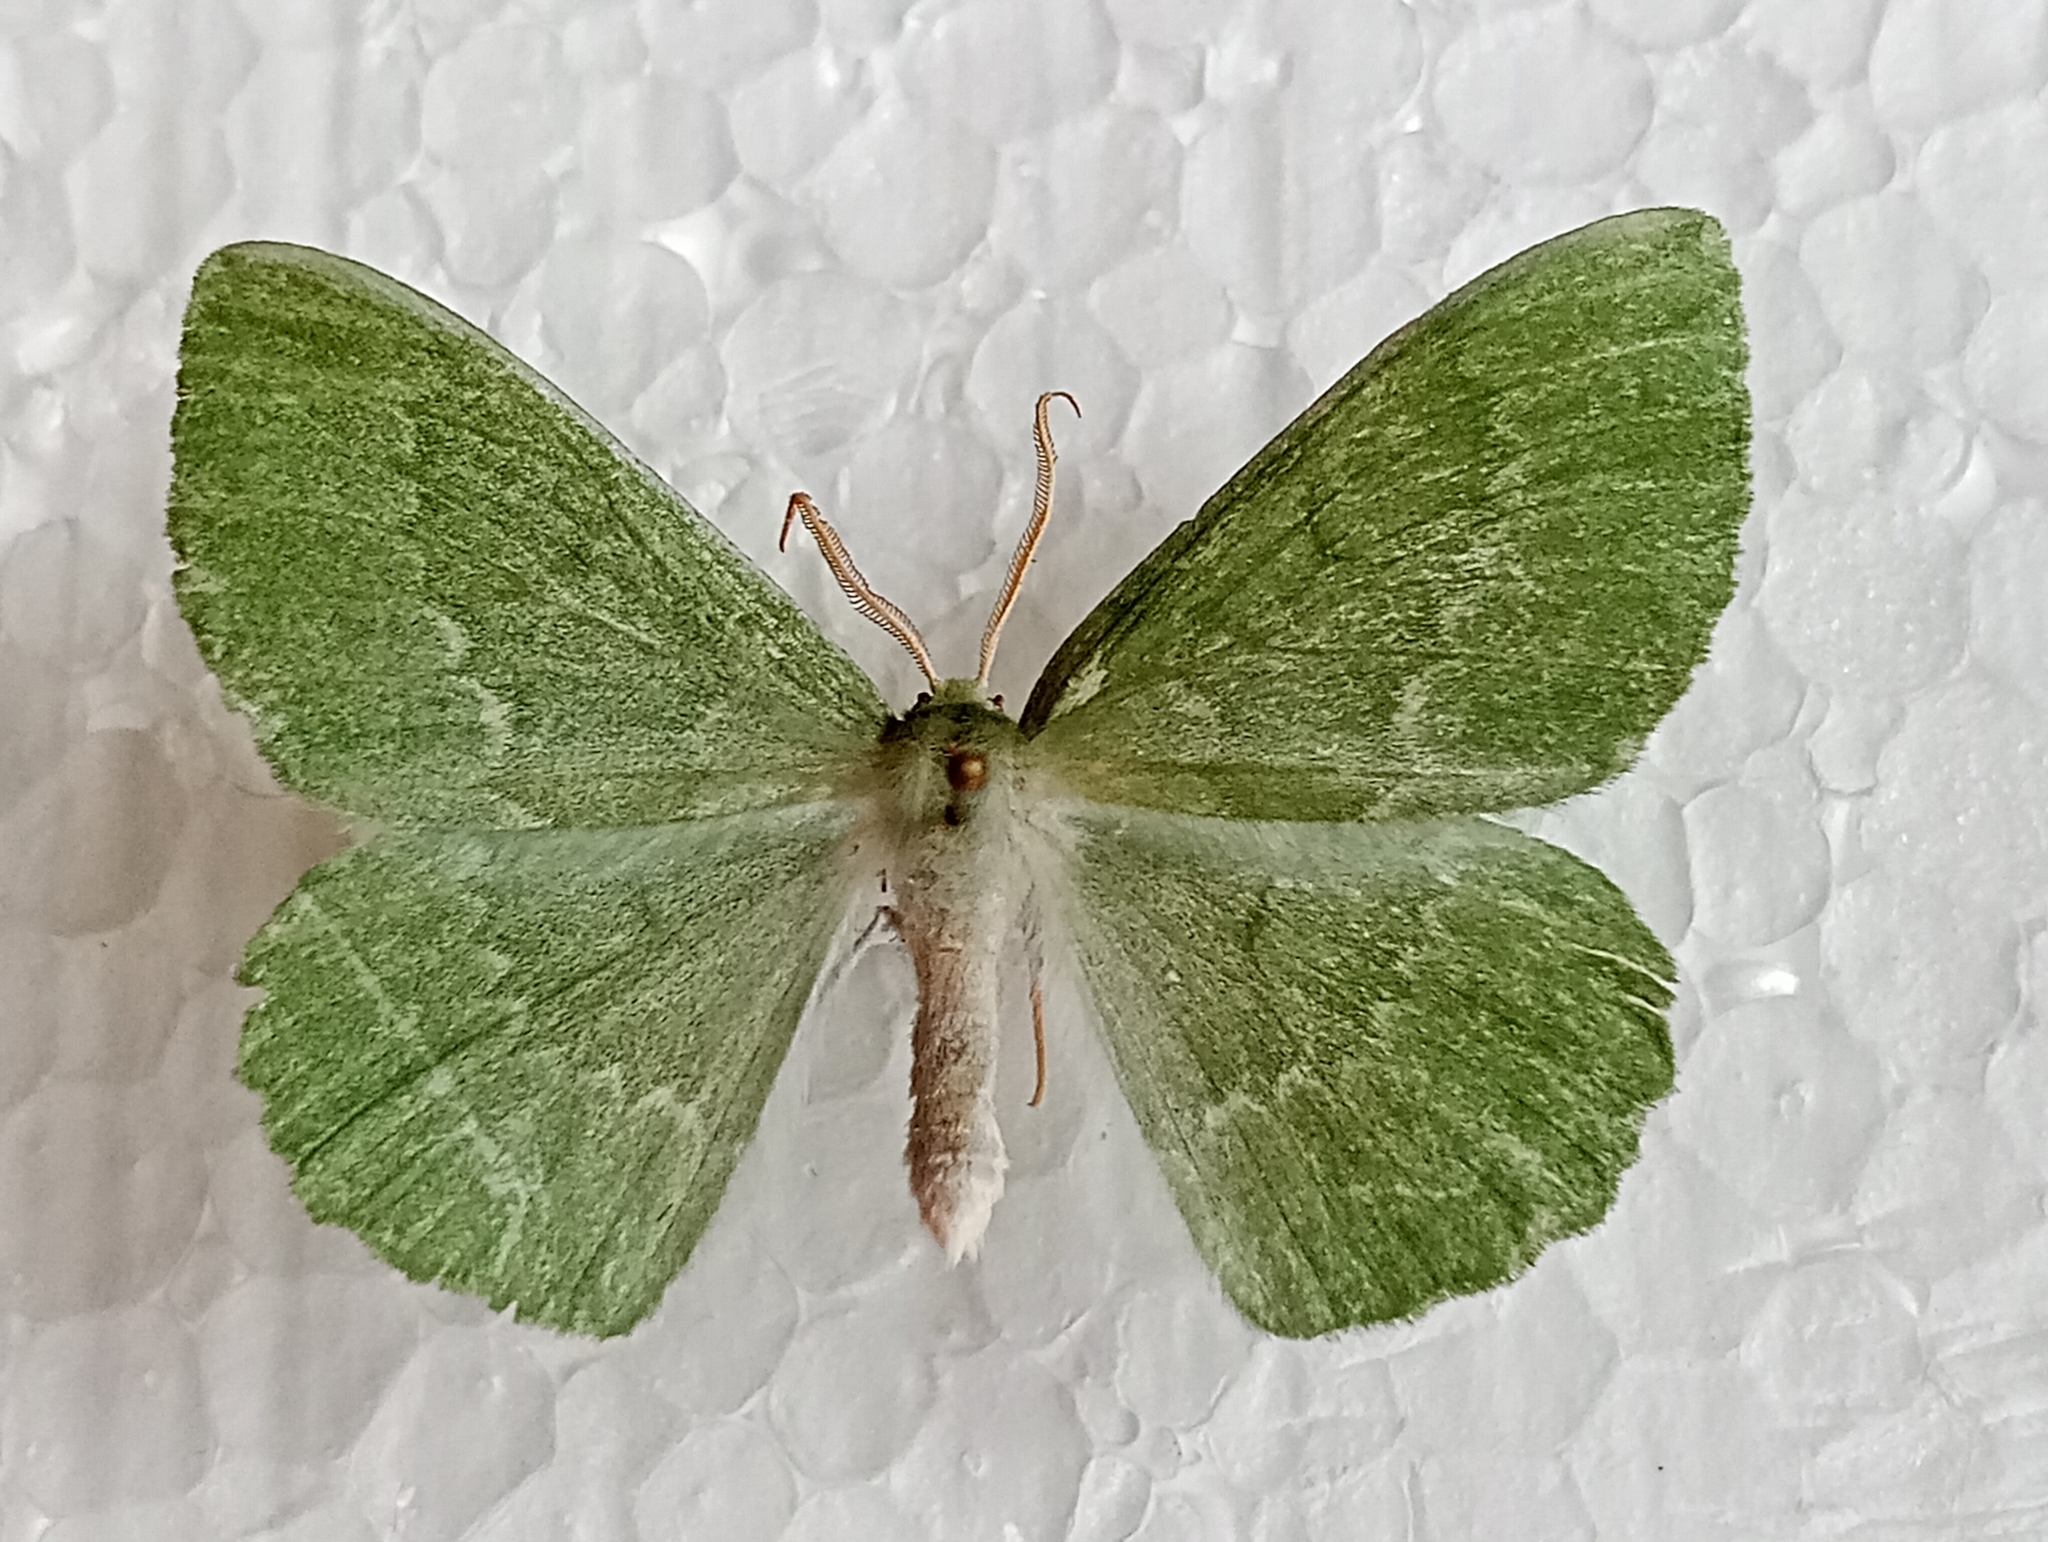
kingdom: Animalia
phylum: Arthropoda
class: Insecta
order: Lepidoptera
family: Geometridae
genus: Geometra
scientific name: Geometra papilionaria
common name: Large emerald
